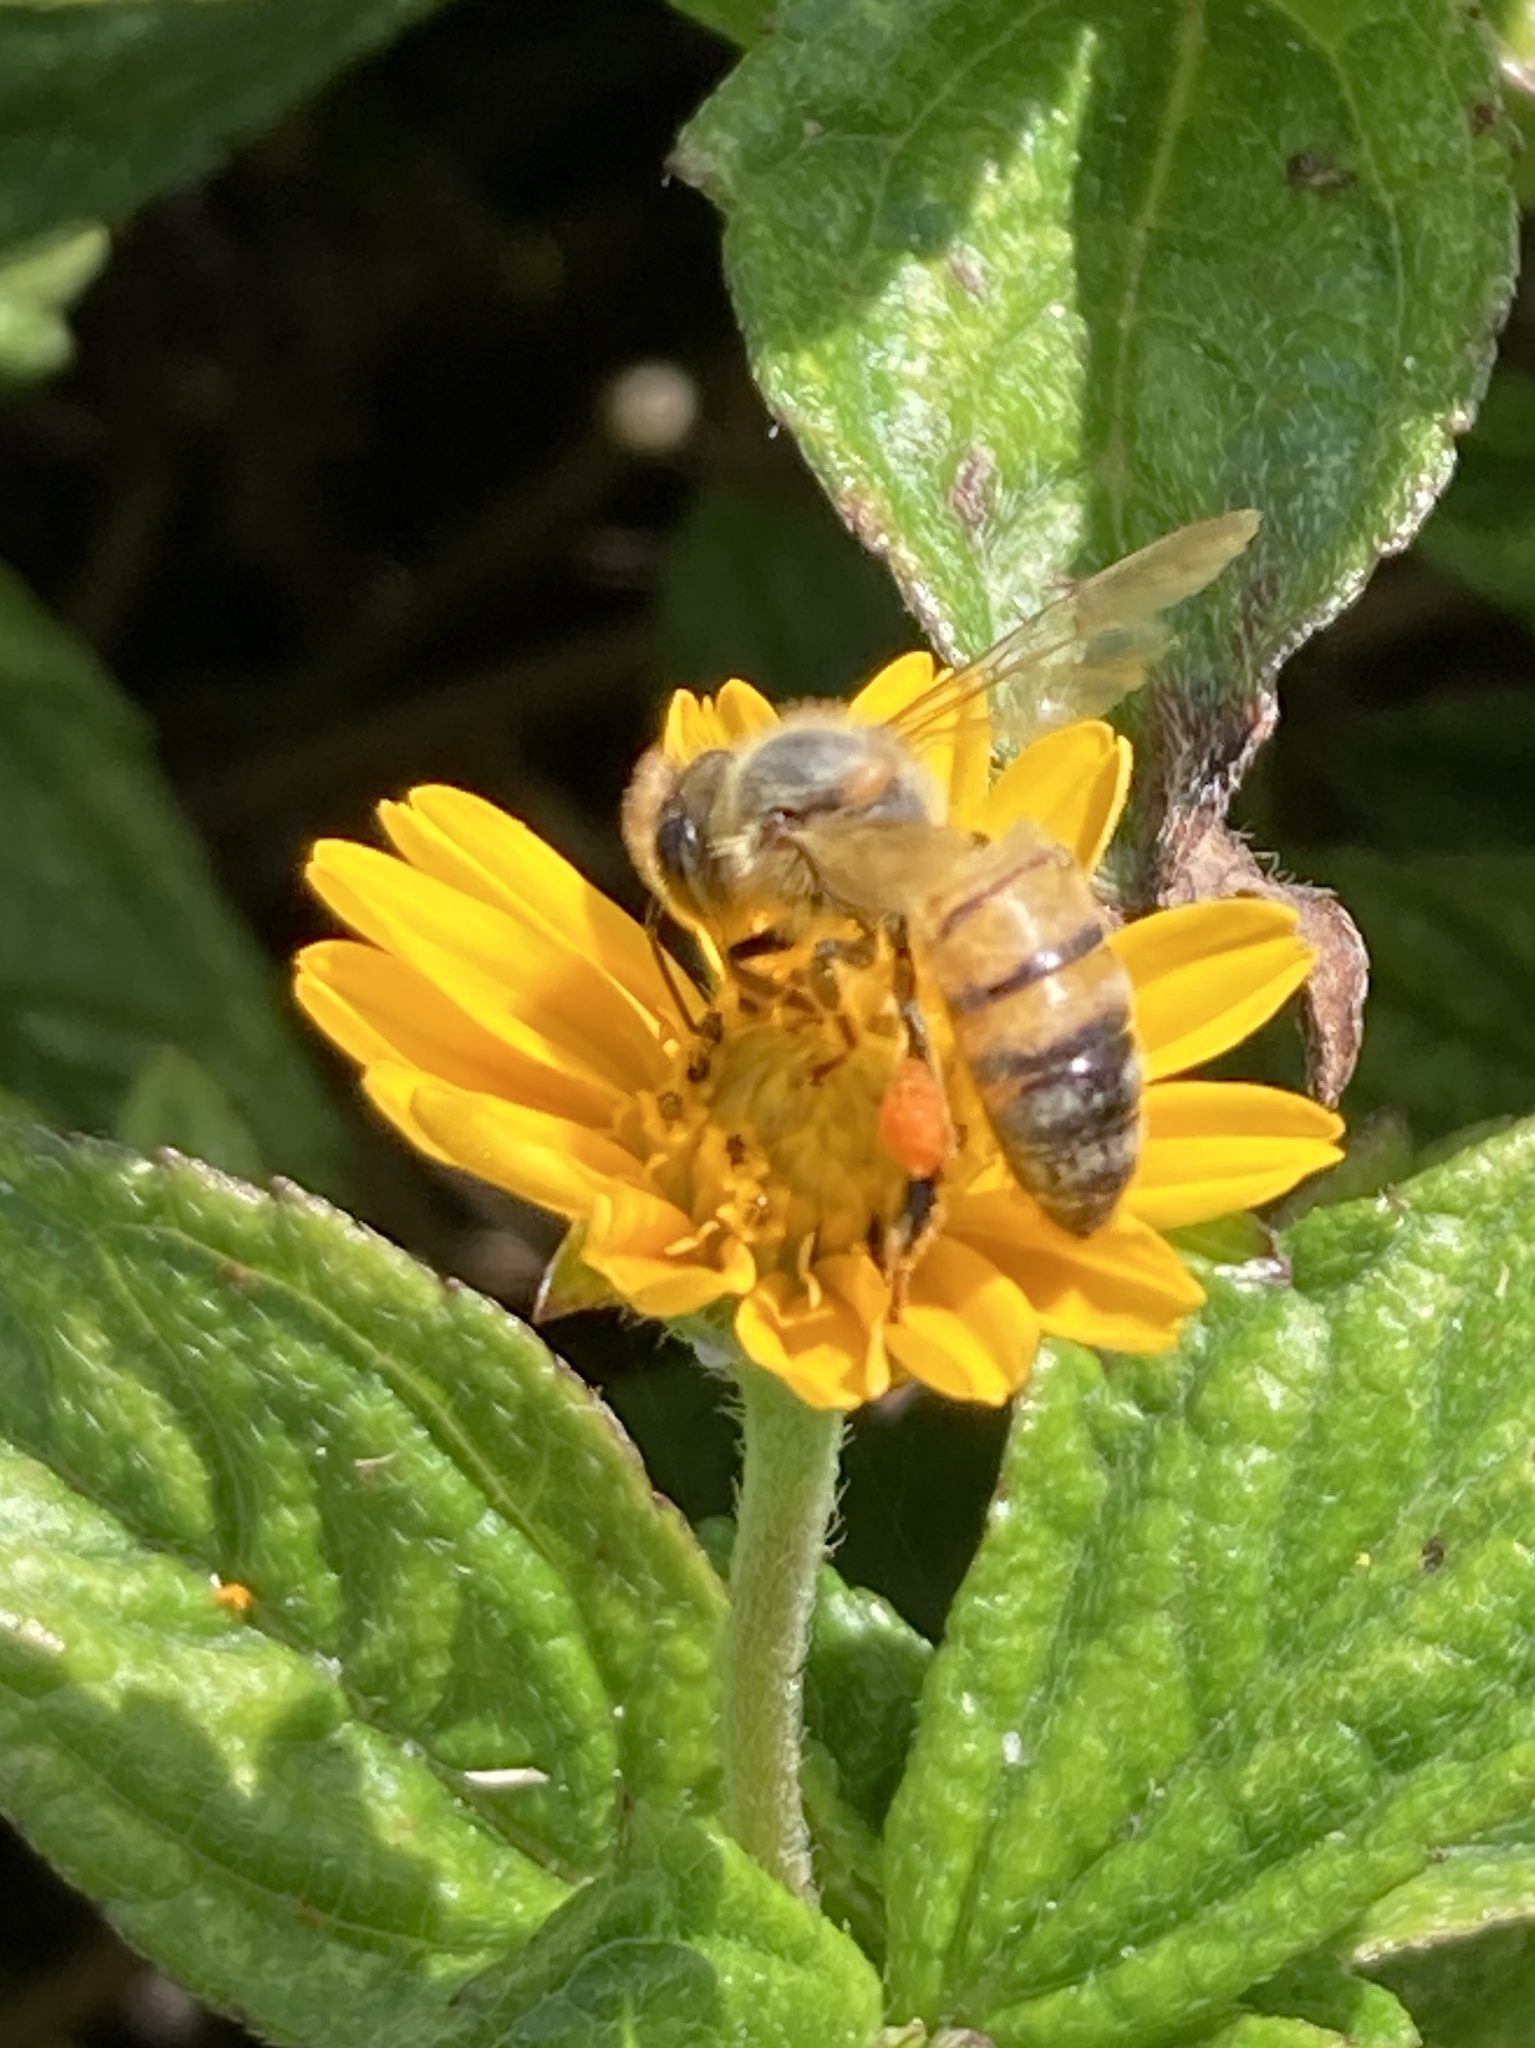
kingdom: Animalia
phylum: Arthropoda
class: Insecta
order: Hymenoptera
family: Apidae
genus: Apis
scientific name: Apis mellifera
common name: Honey bee
